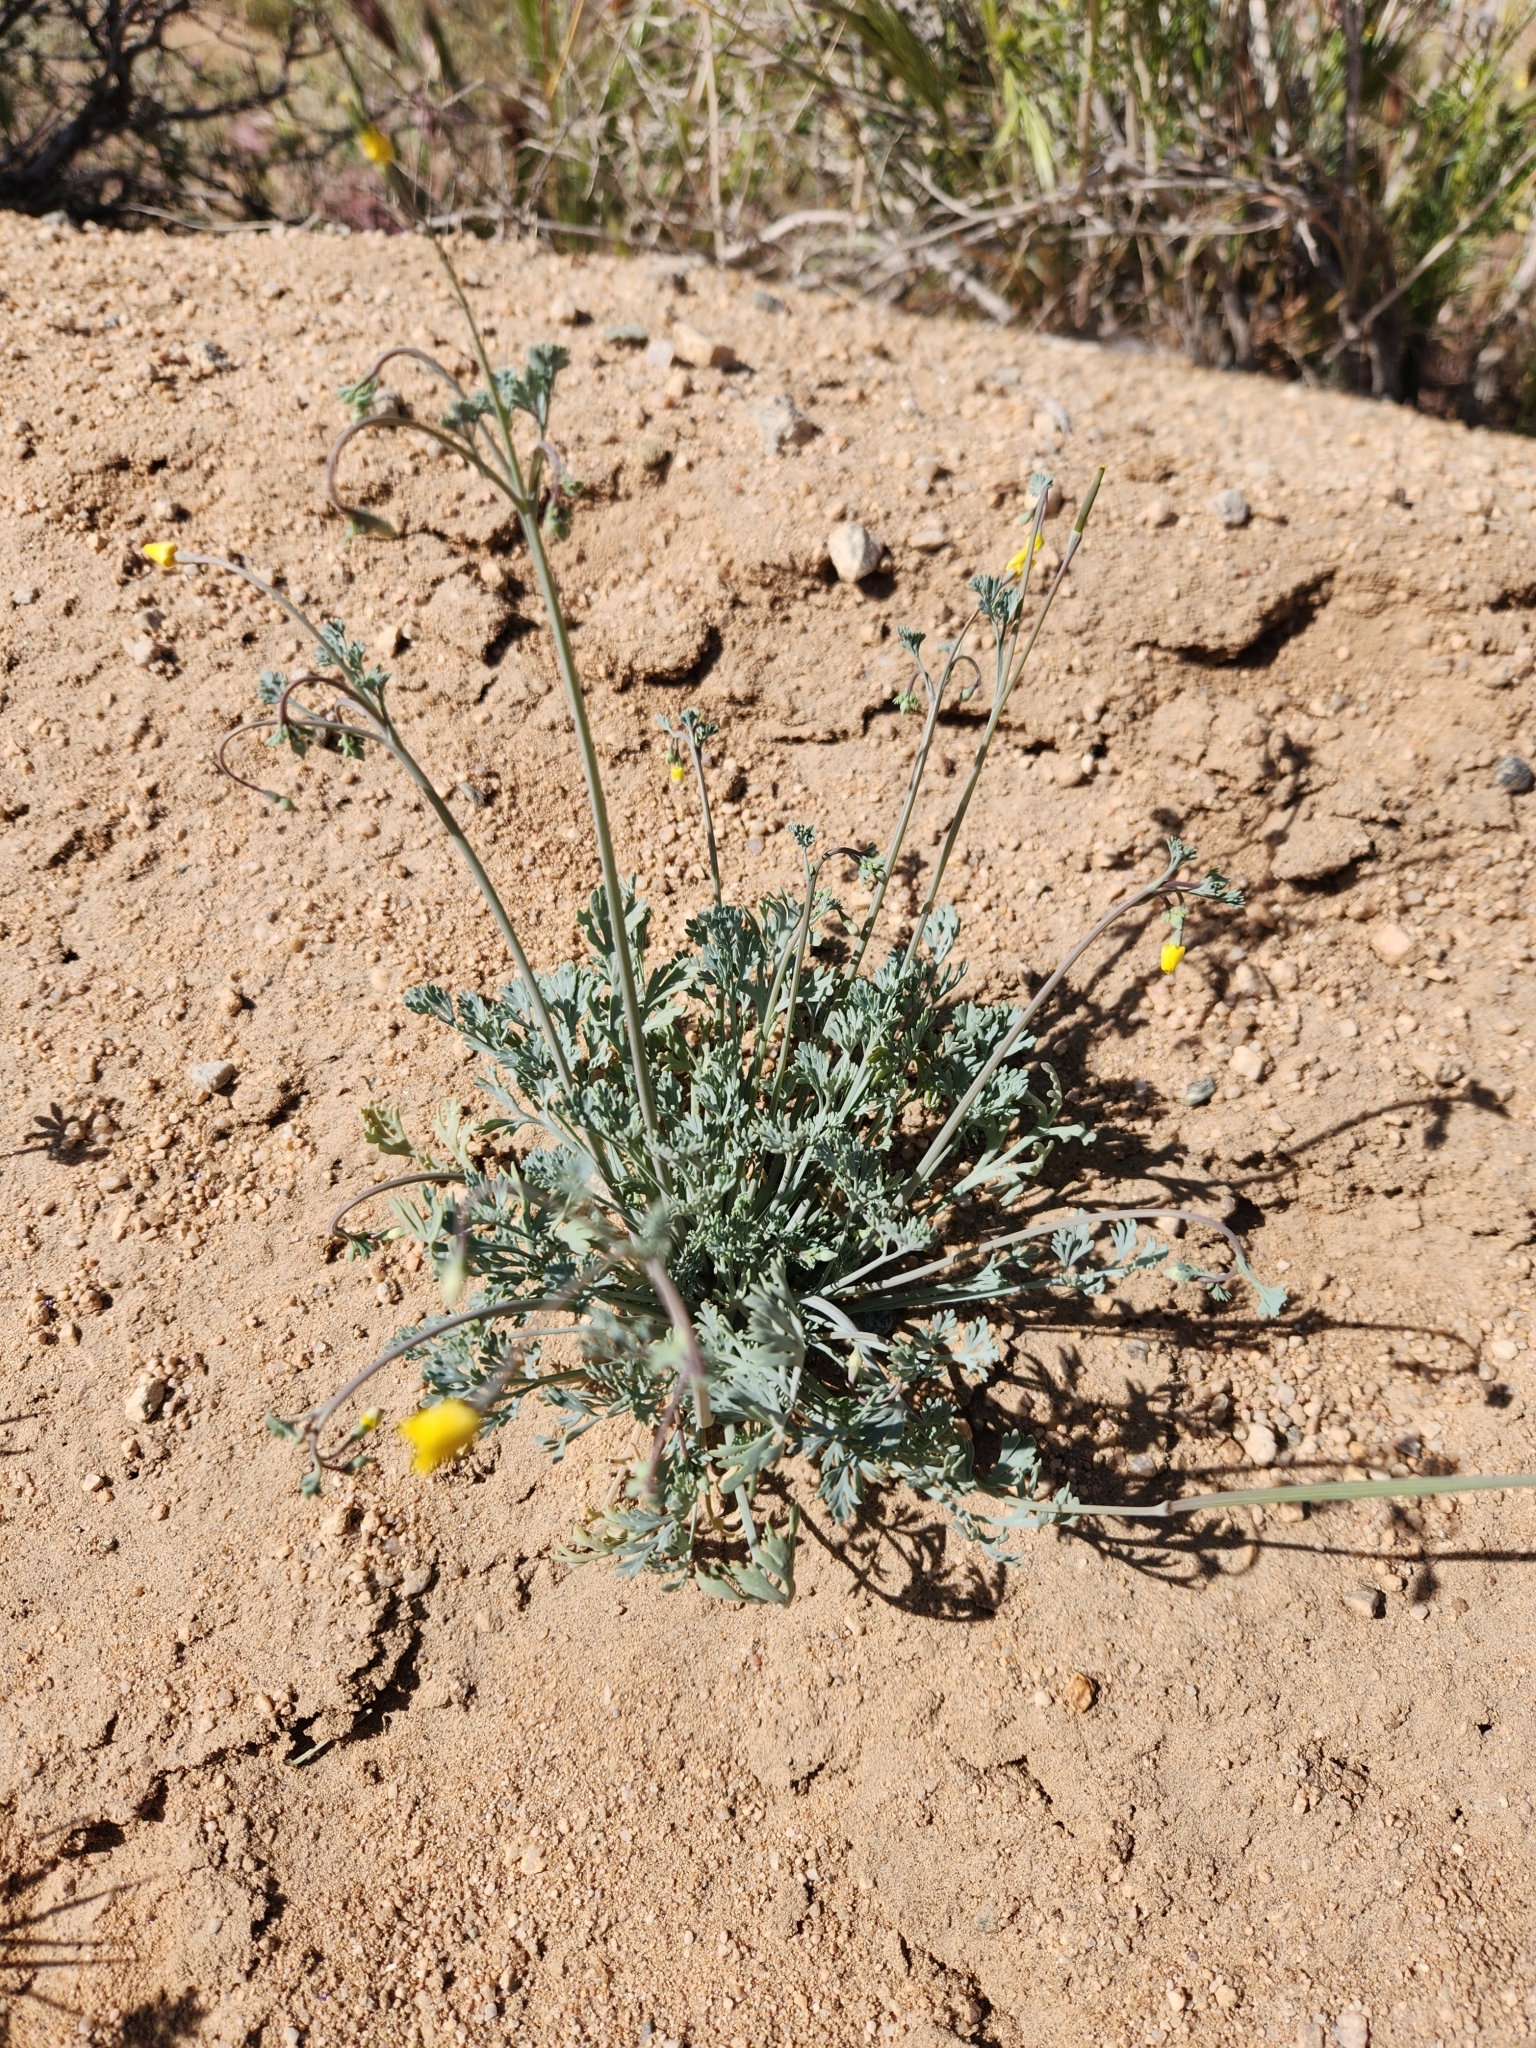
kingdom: Plantae
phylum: Tracheophyta
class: Magnoliopsida
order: Ranunculales
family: Papaveraceae
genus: Eschscholzia
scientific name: Eschscholzia minutiflora
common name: Small-flower california-poppy
